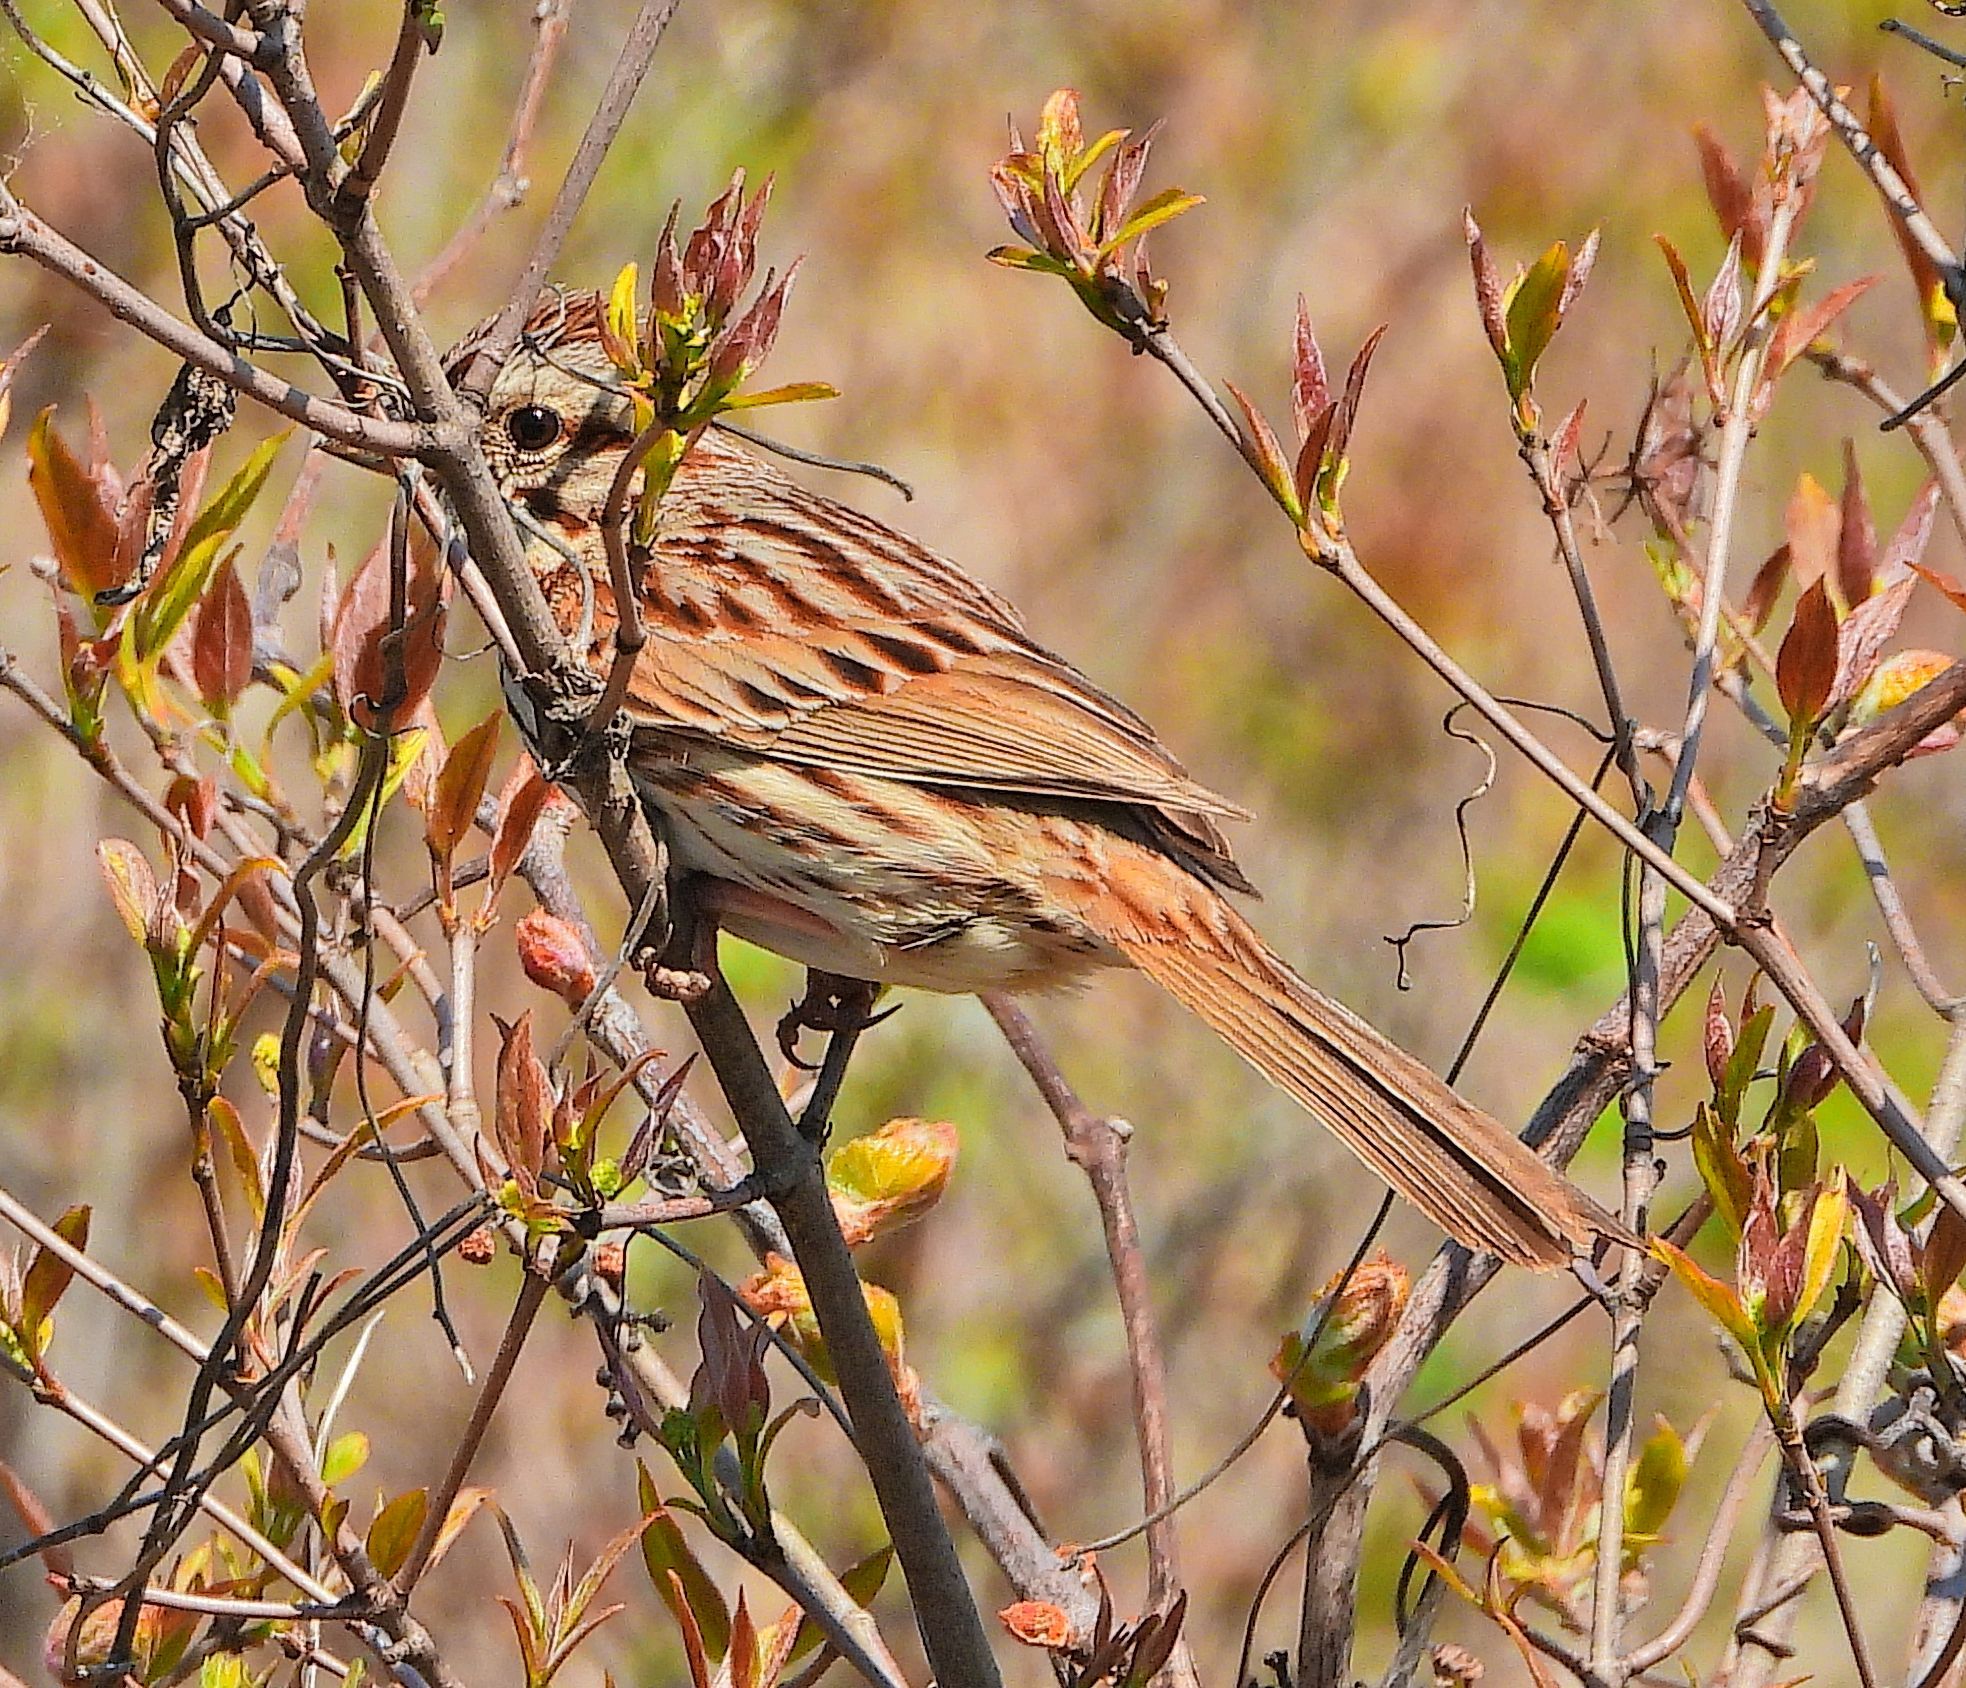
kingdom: Animalia
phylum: Chordata
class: Aves
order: Passeriformes
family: Passerellidae
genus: Melospiza
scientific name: Melospiza melodia
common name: Song sparrow
